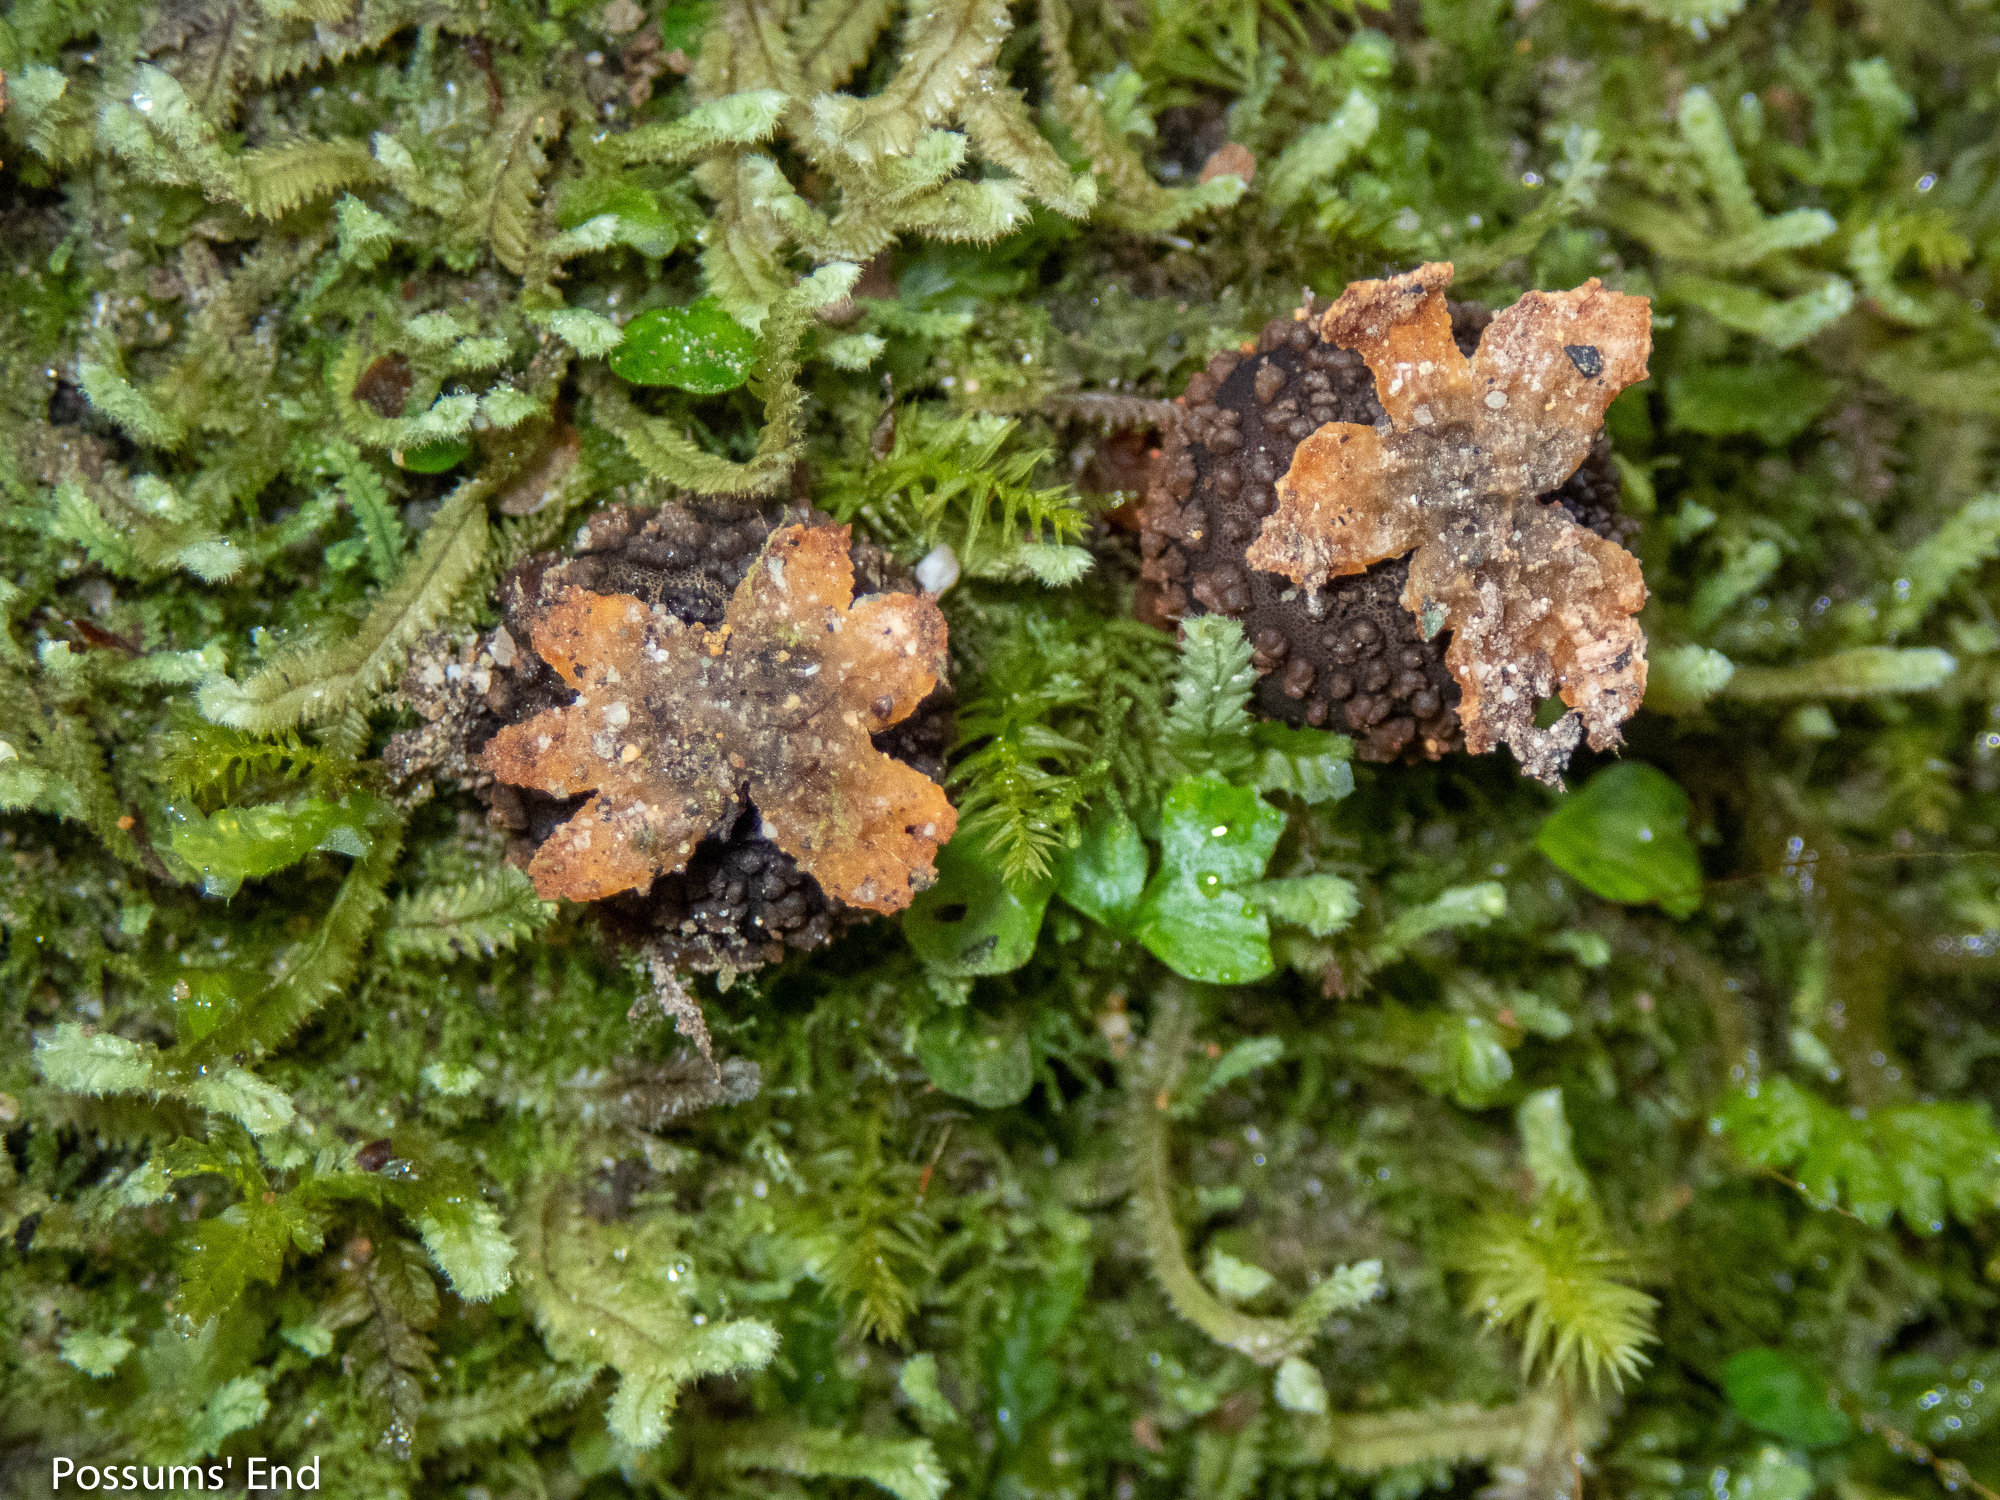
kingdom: Fungi
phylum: Basidiomycota
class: Agaricomycetes
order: Boletales
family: Calostomataceae
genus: Calostoma
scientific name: Calostoma rodwayi
